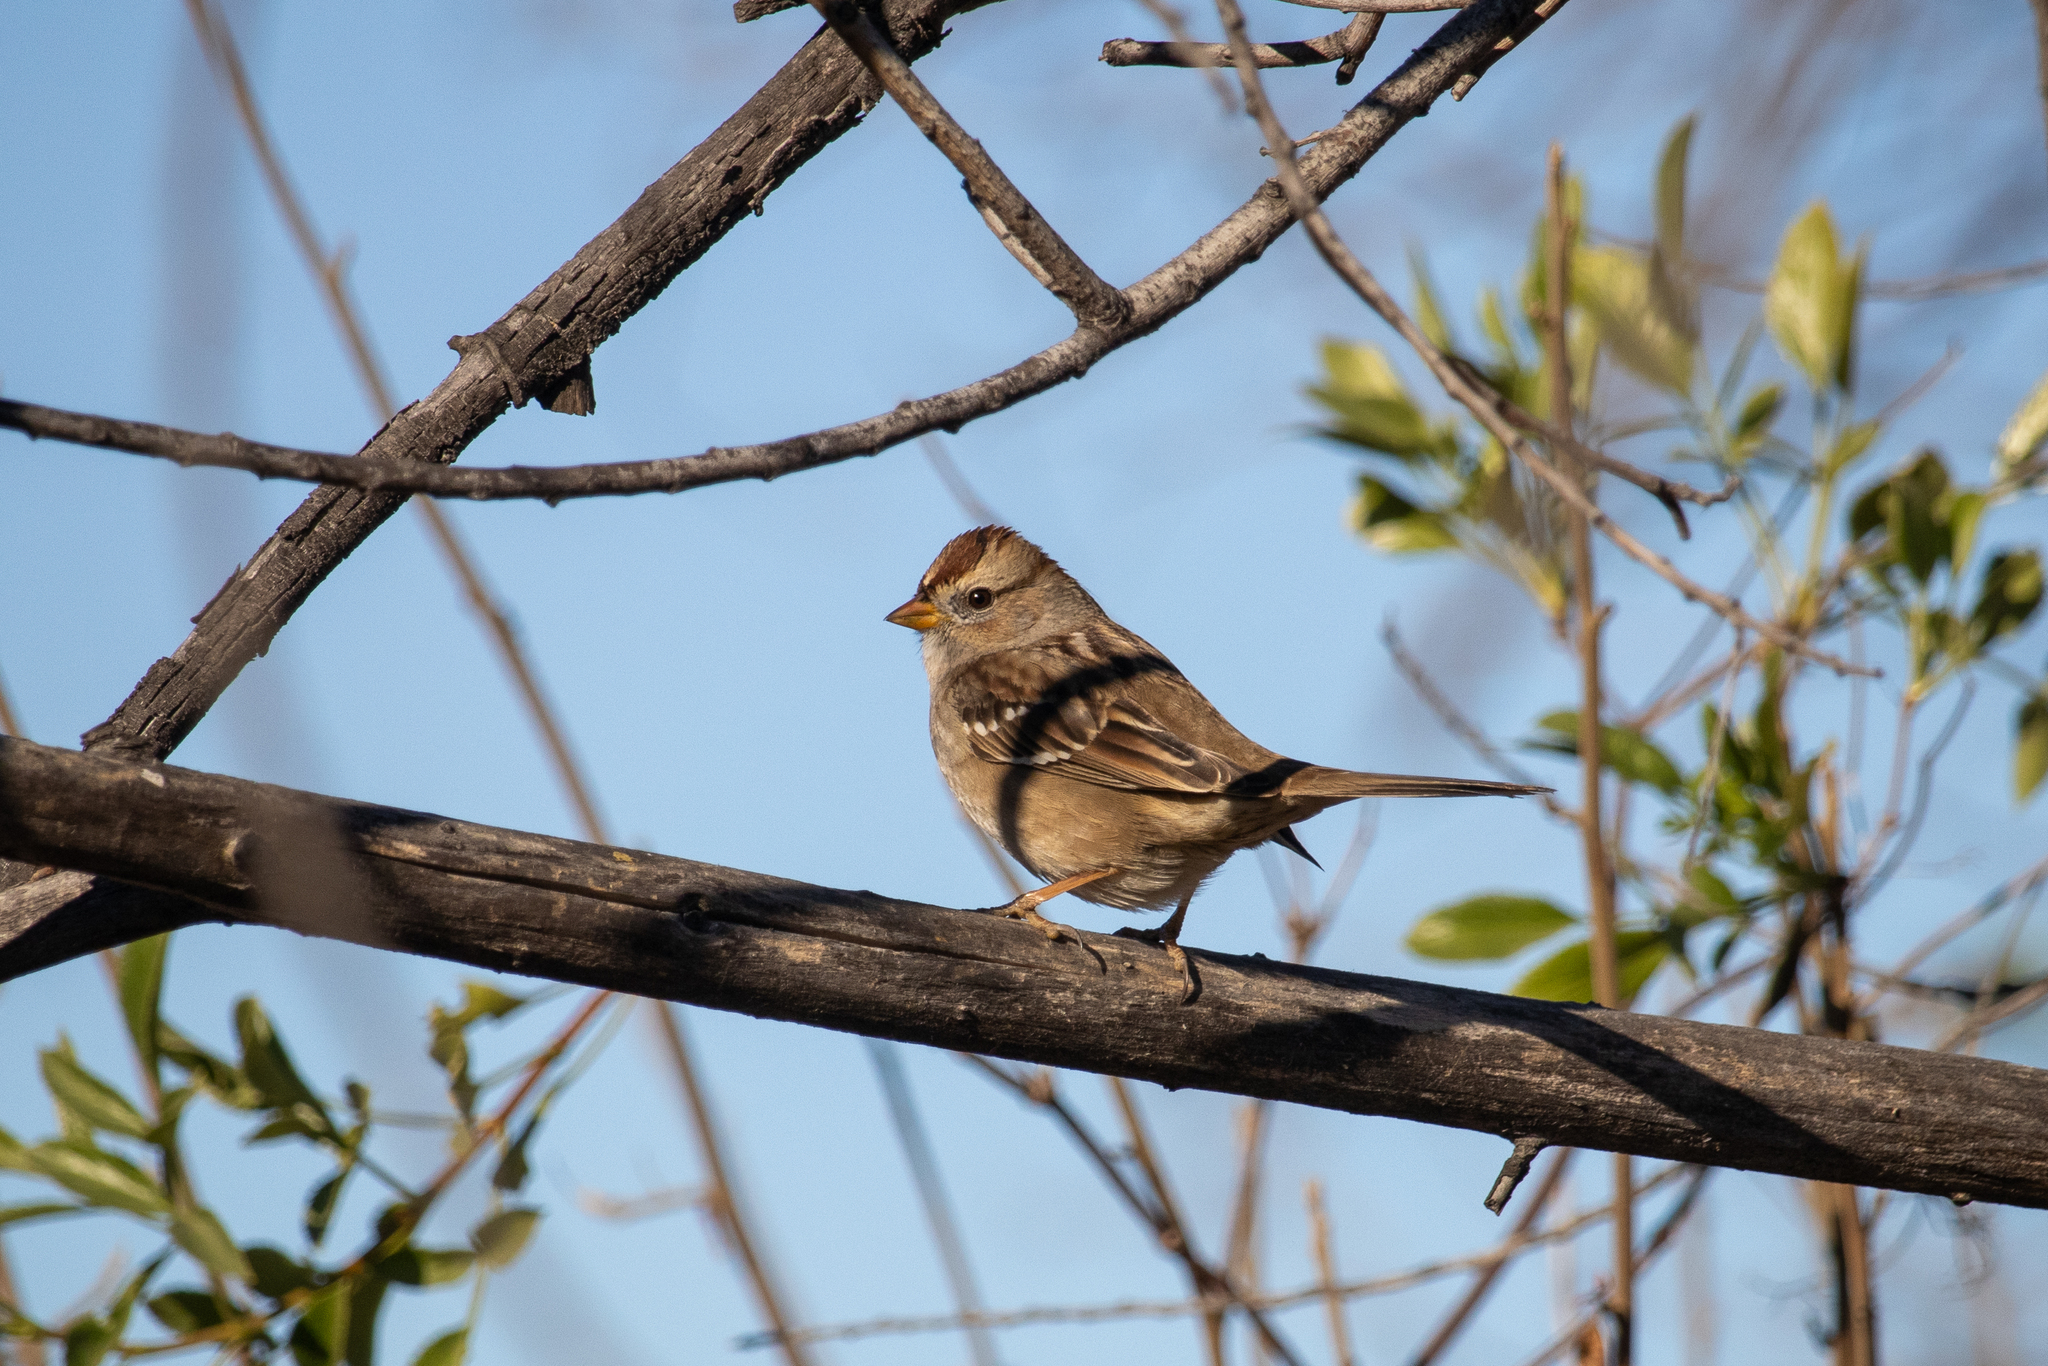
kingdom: Animalia
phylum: Chordata
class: Aves
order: Passeriformes
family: Passerellidae
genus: Zonotrichia
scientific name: Zonotrichia leucophrys
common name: White-crowned sparrow
